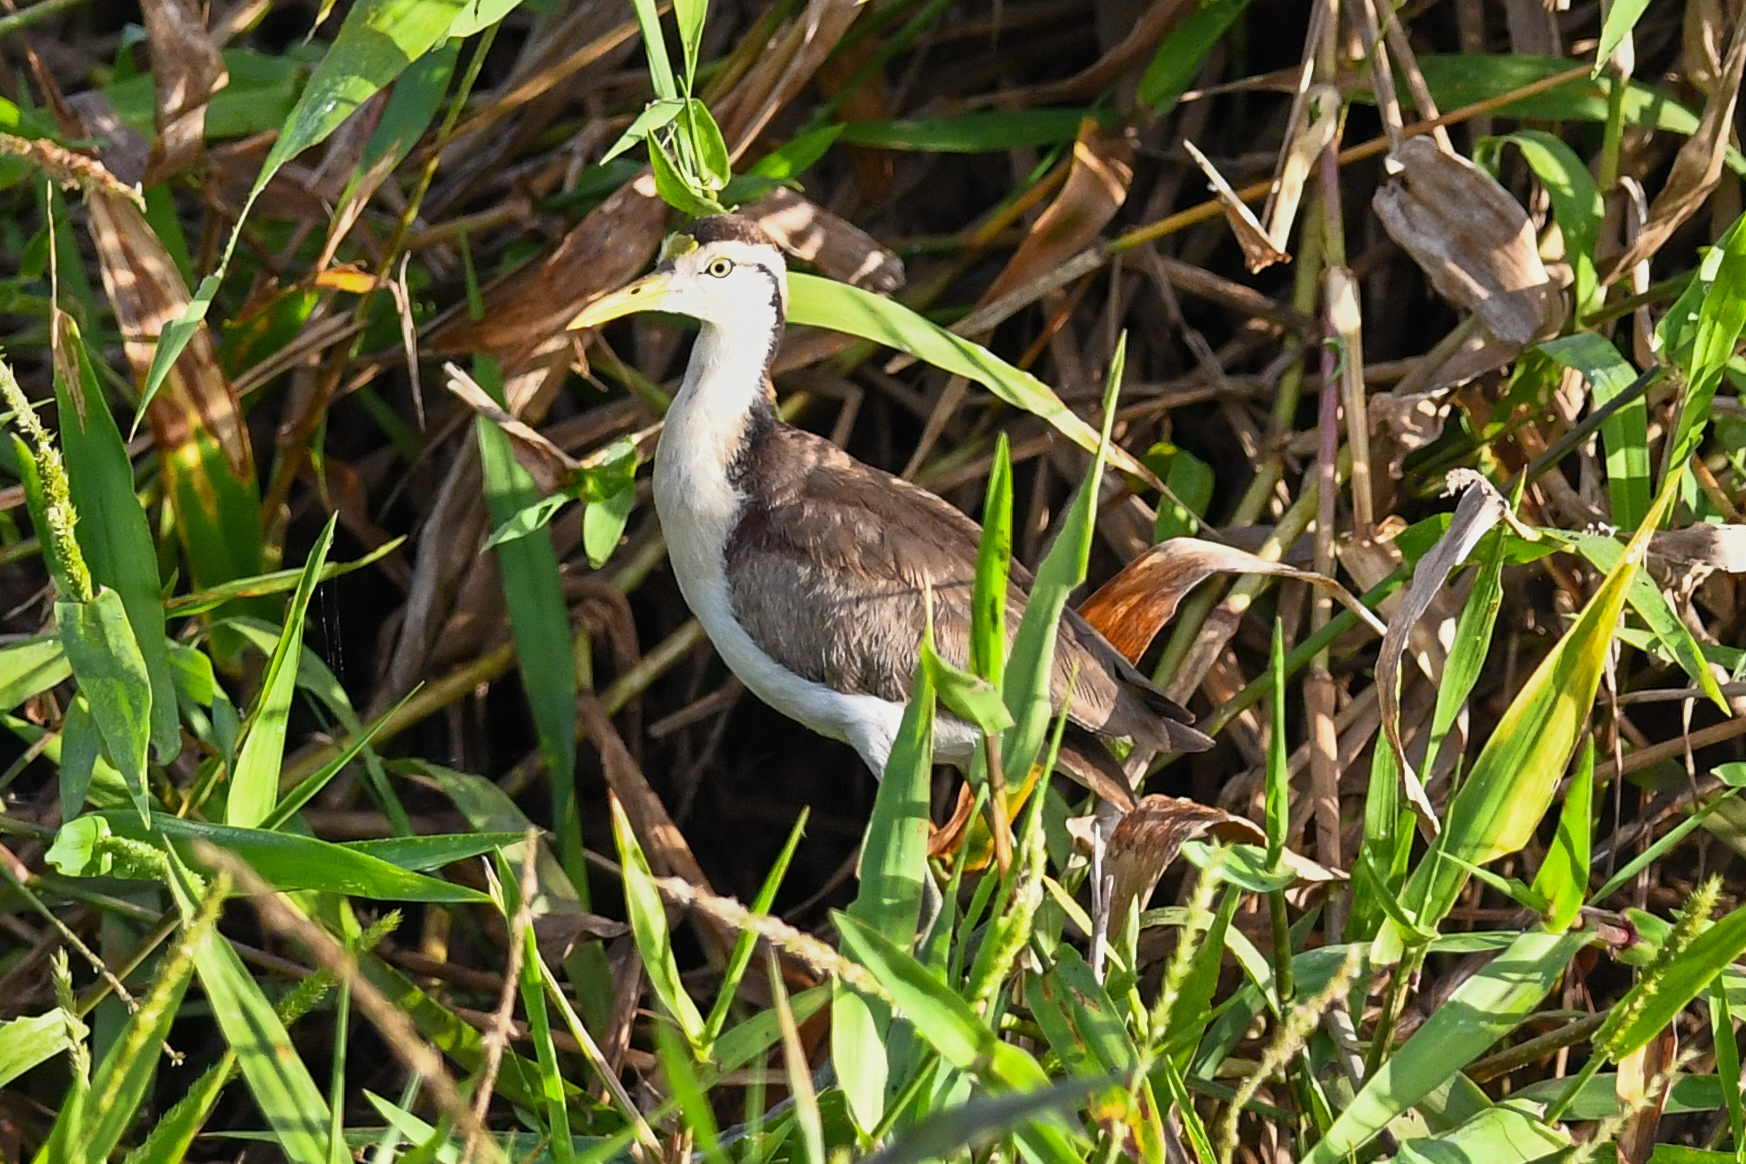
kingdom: Animalia
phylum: Chordata
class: Aves
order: Charadriiformes
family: Jacanidae
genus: Jacana
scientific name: Jacana spinosa
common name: Northern jacana
